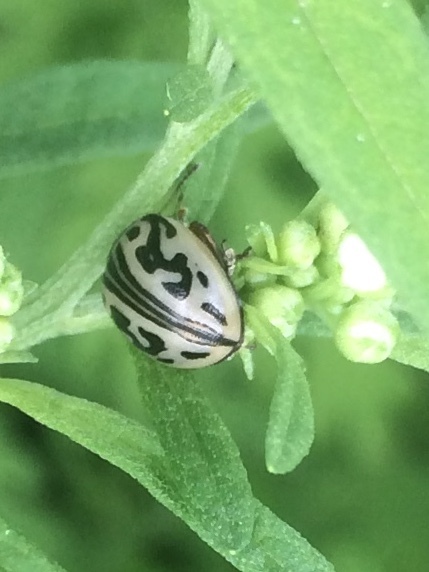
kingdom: Animalia
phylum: Arthropoda
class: Insecta
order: Coleoptera
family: Chrysomelidae
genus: Calligrapha
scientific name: Calligrapha
